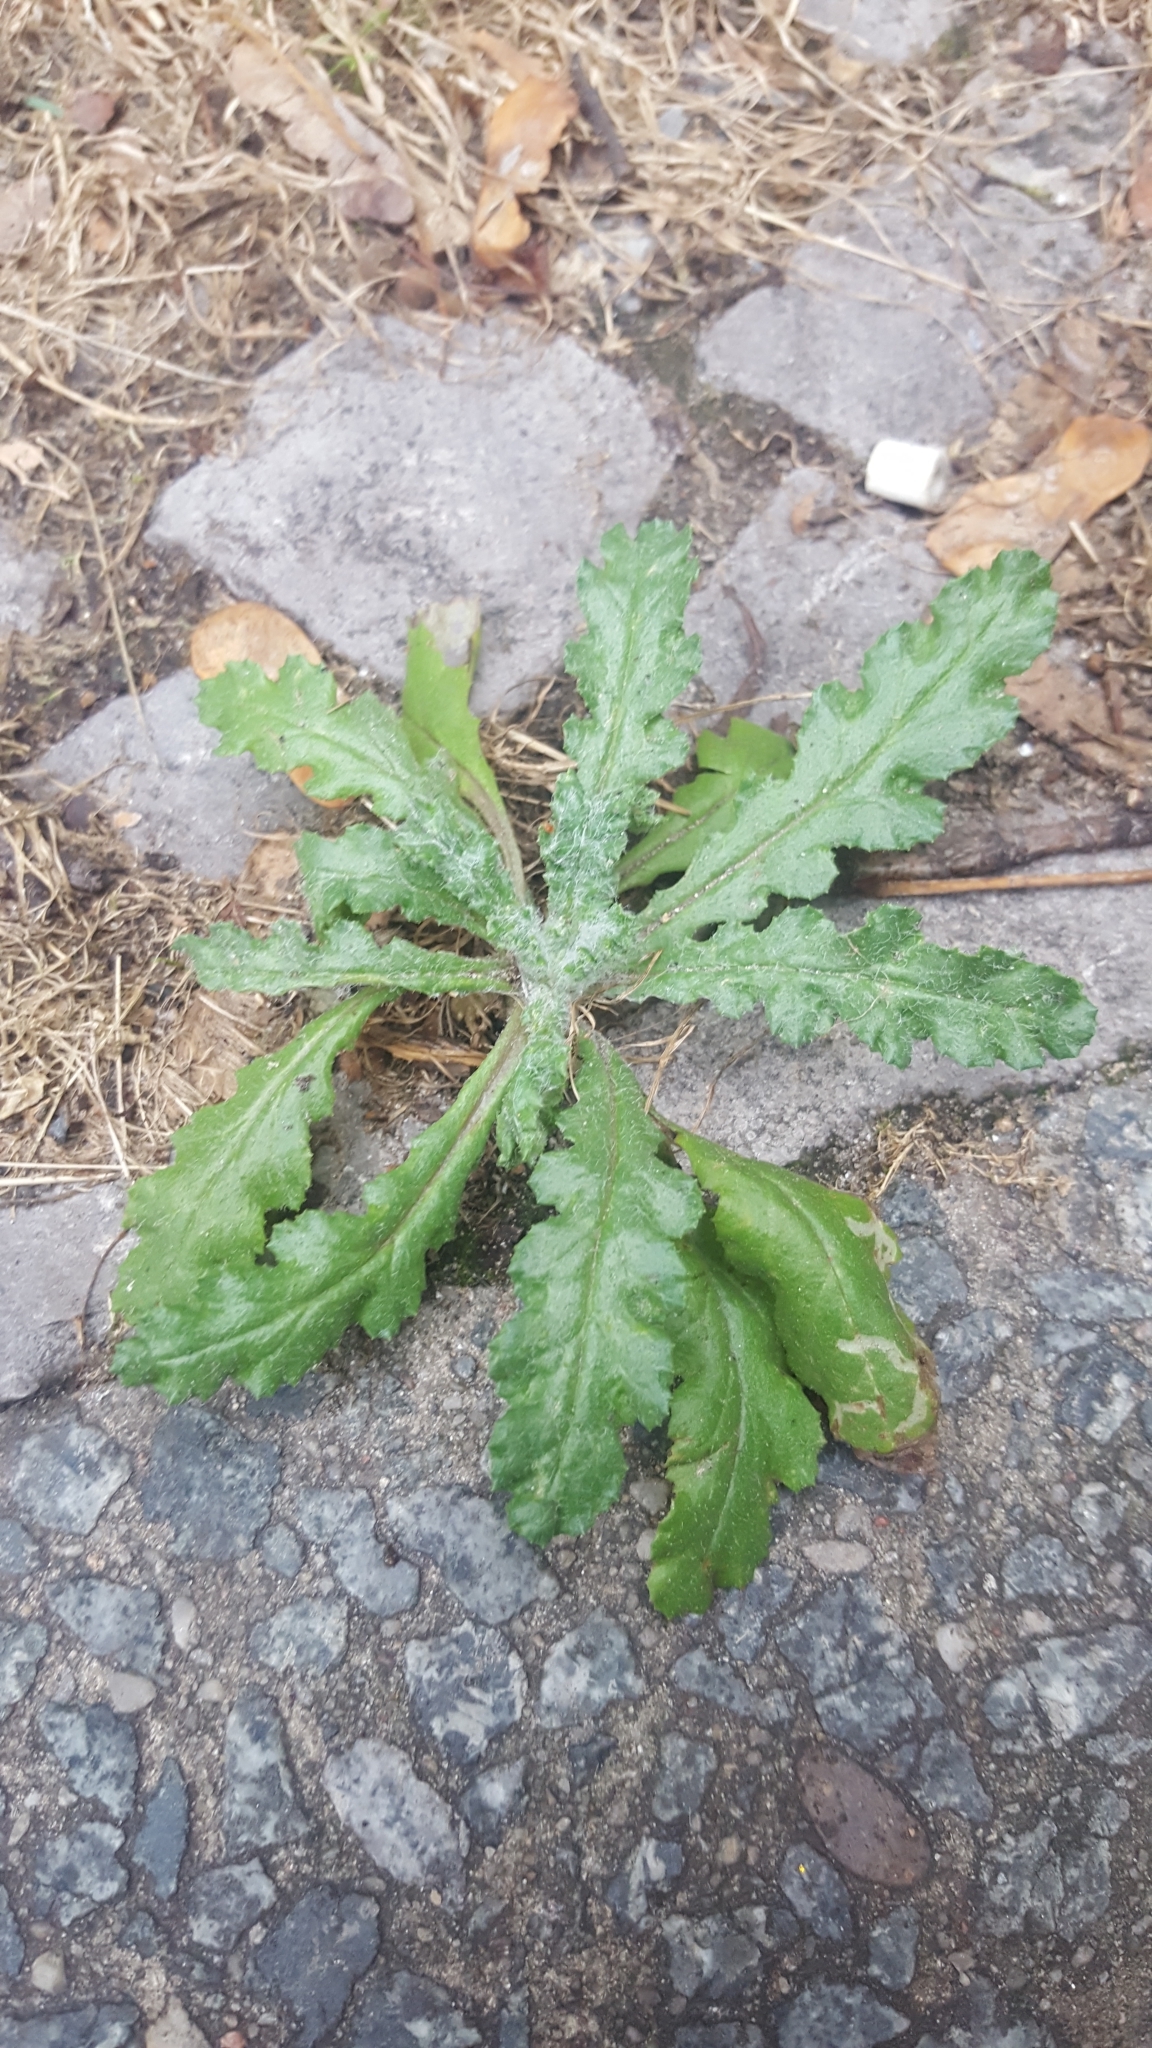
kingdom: Plantae
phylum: Tracheophyta
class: Magnoliopsida
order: Asterales
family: Asteraceae
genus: Senecio
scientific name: Senecio vulgaris
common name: Old-man-in-the-spring
